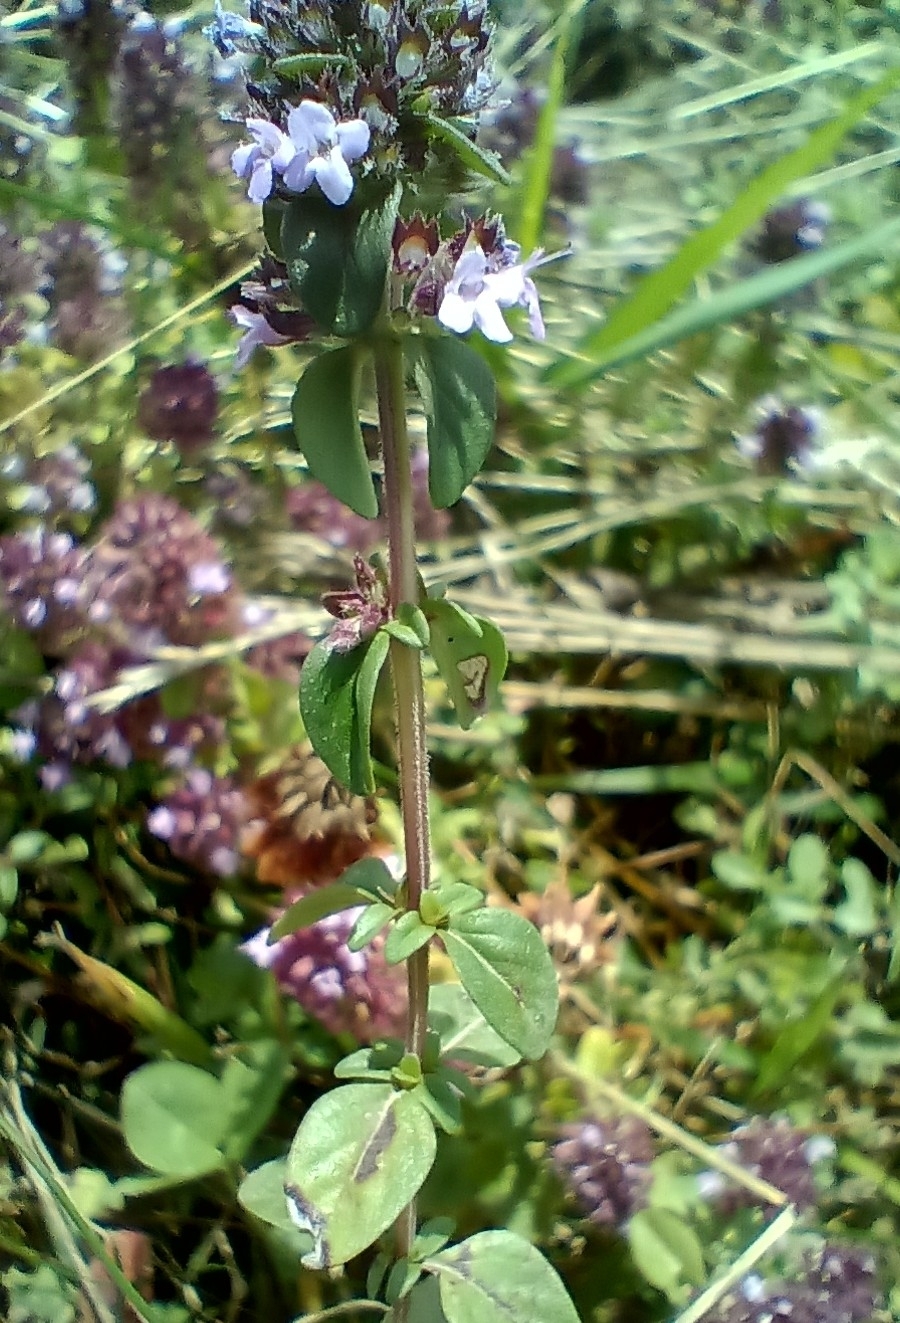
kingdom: Plantae
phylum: Tracheophyta
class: Magnoliopsida
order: Lamiales
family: Lamiaceae
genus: Thymus
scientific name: Thymus pulegioides
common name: Large thyme
